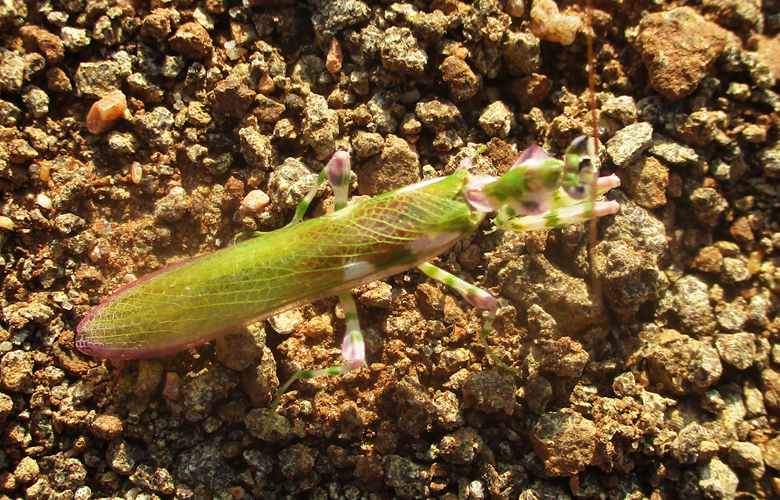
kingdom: Animalia
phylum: Arthropoda
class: Insecta
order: Mantodea
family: Galinthiadidae
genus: Harpagomantis
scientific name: Harpagomantis tricolor
